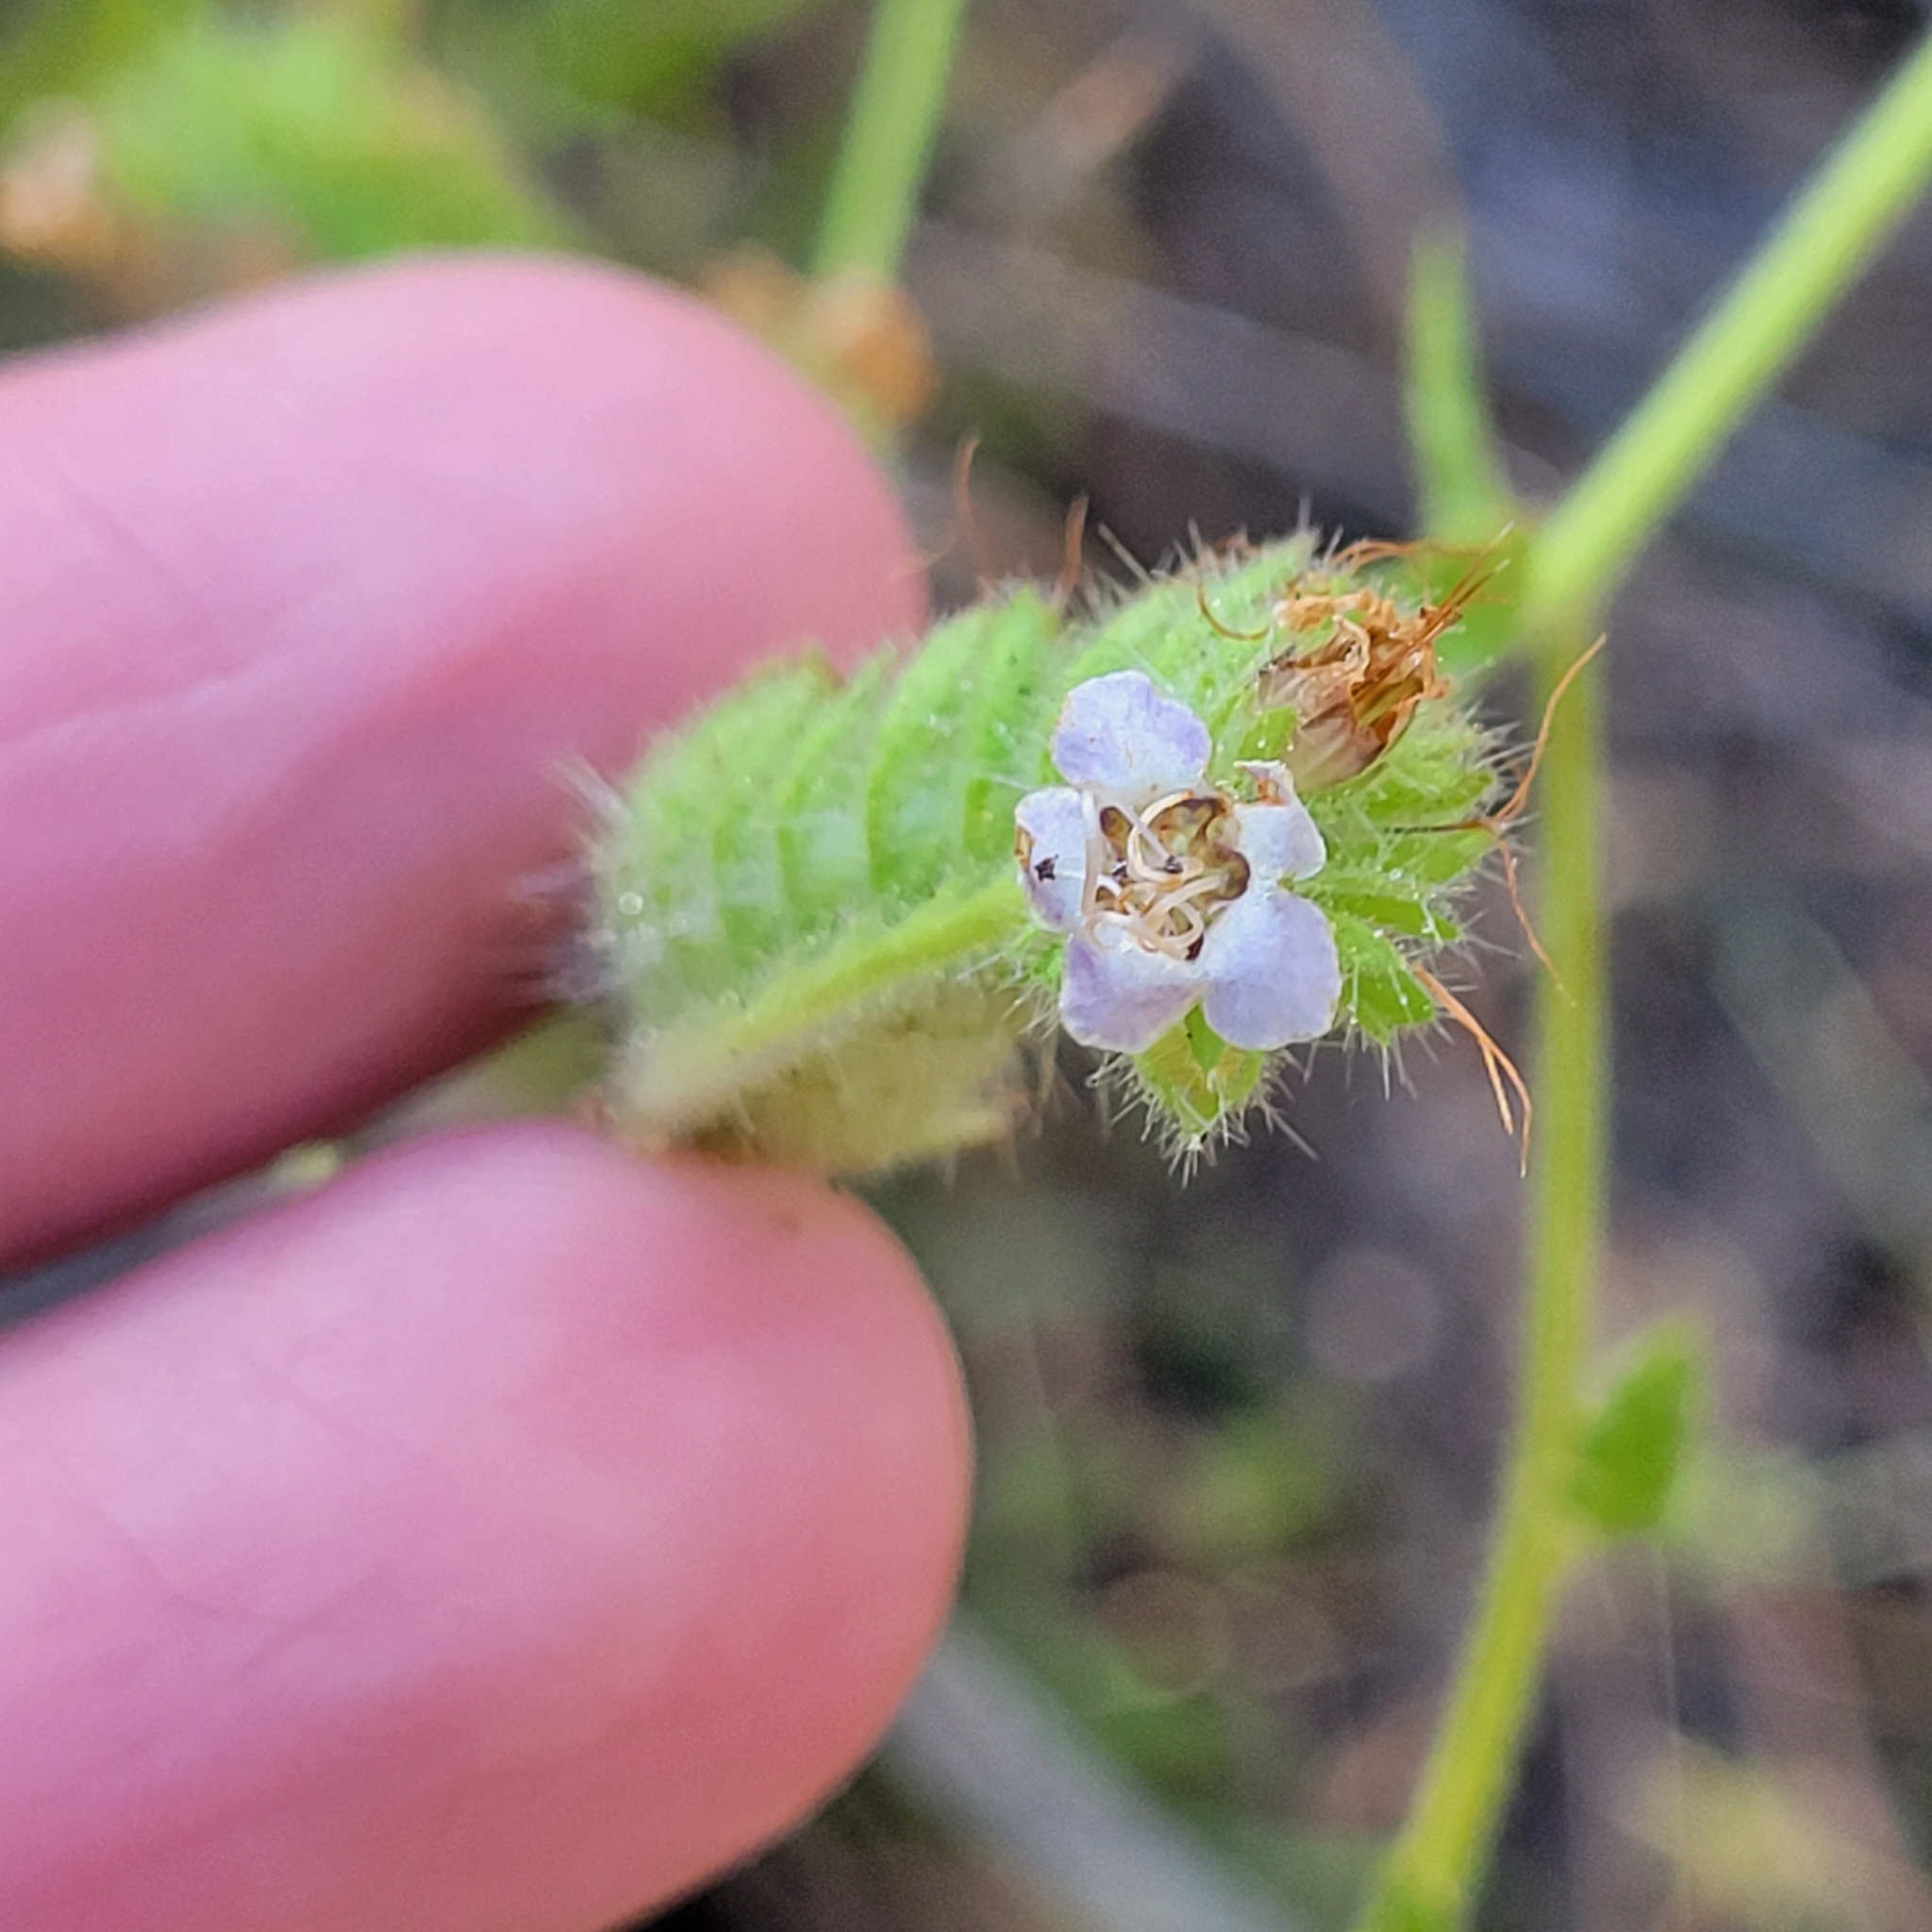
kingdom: Plantae
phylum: Tracheophyta
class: Magnoliopsida
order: Boraginales
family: Hydrophyllaceae
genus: Phacelia
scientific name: Phacelia ramosissima
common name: Branching phacelia
